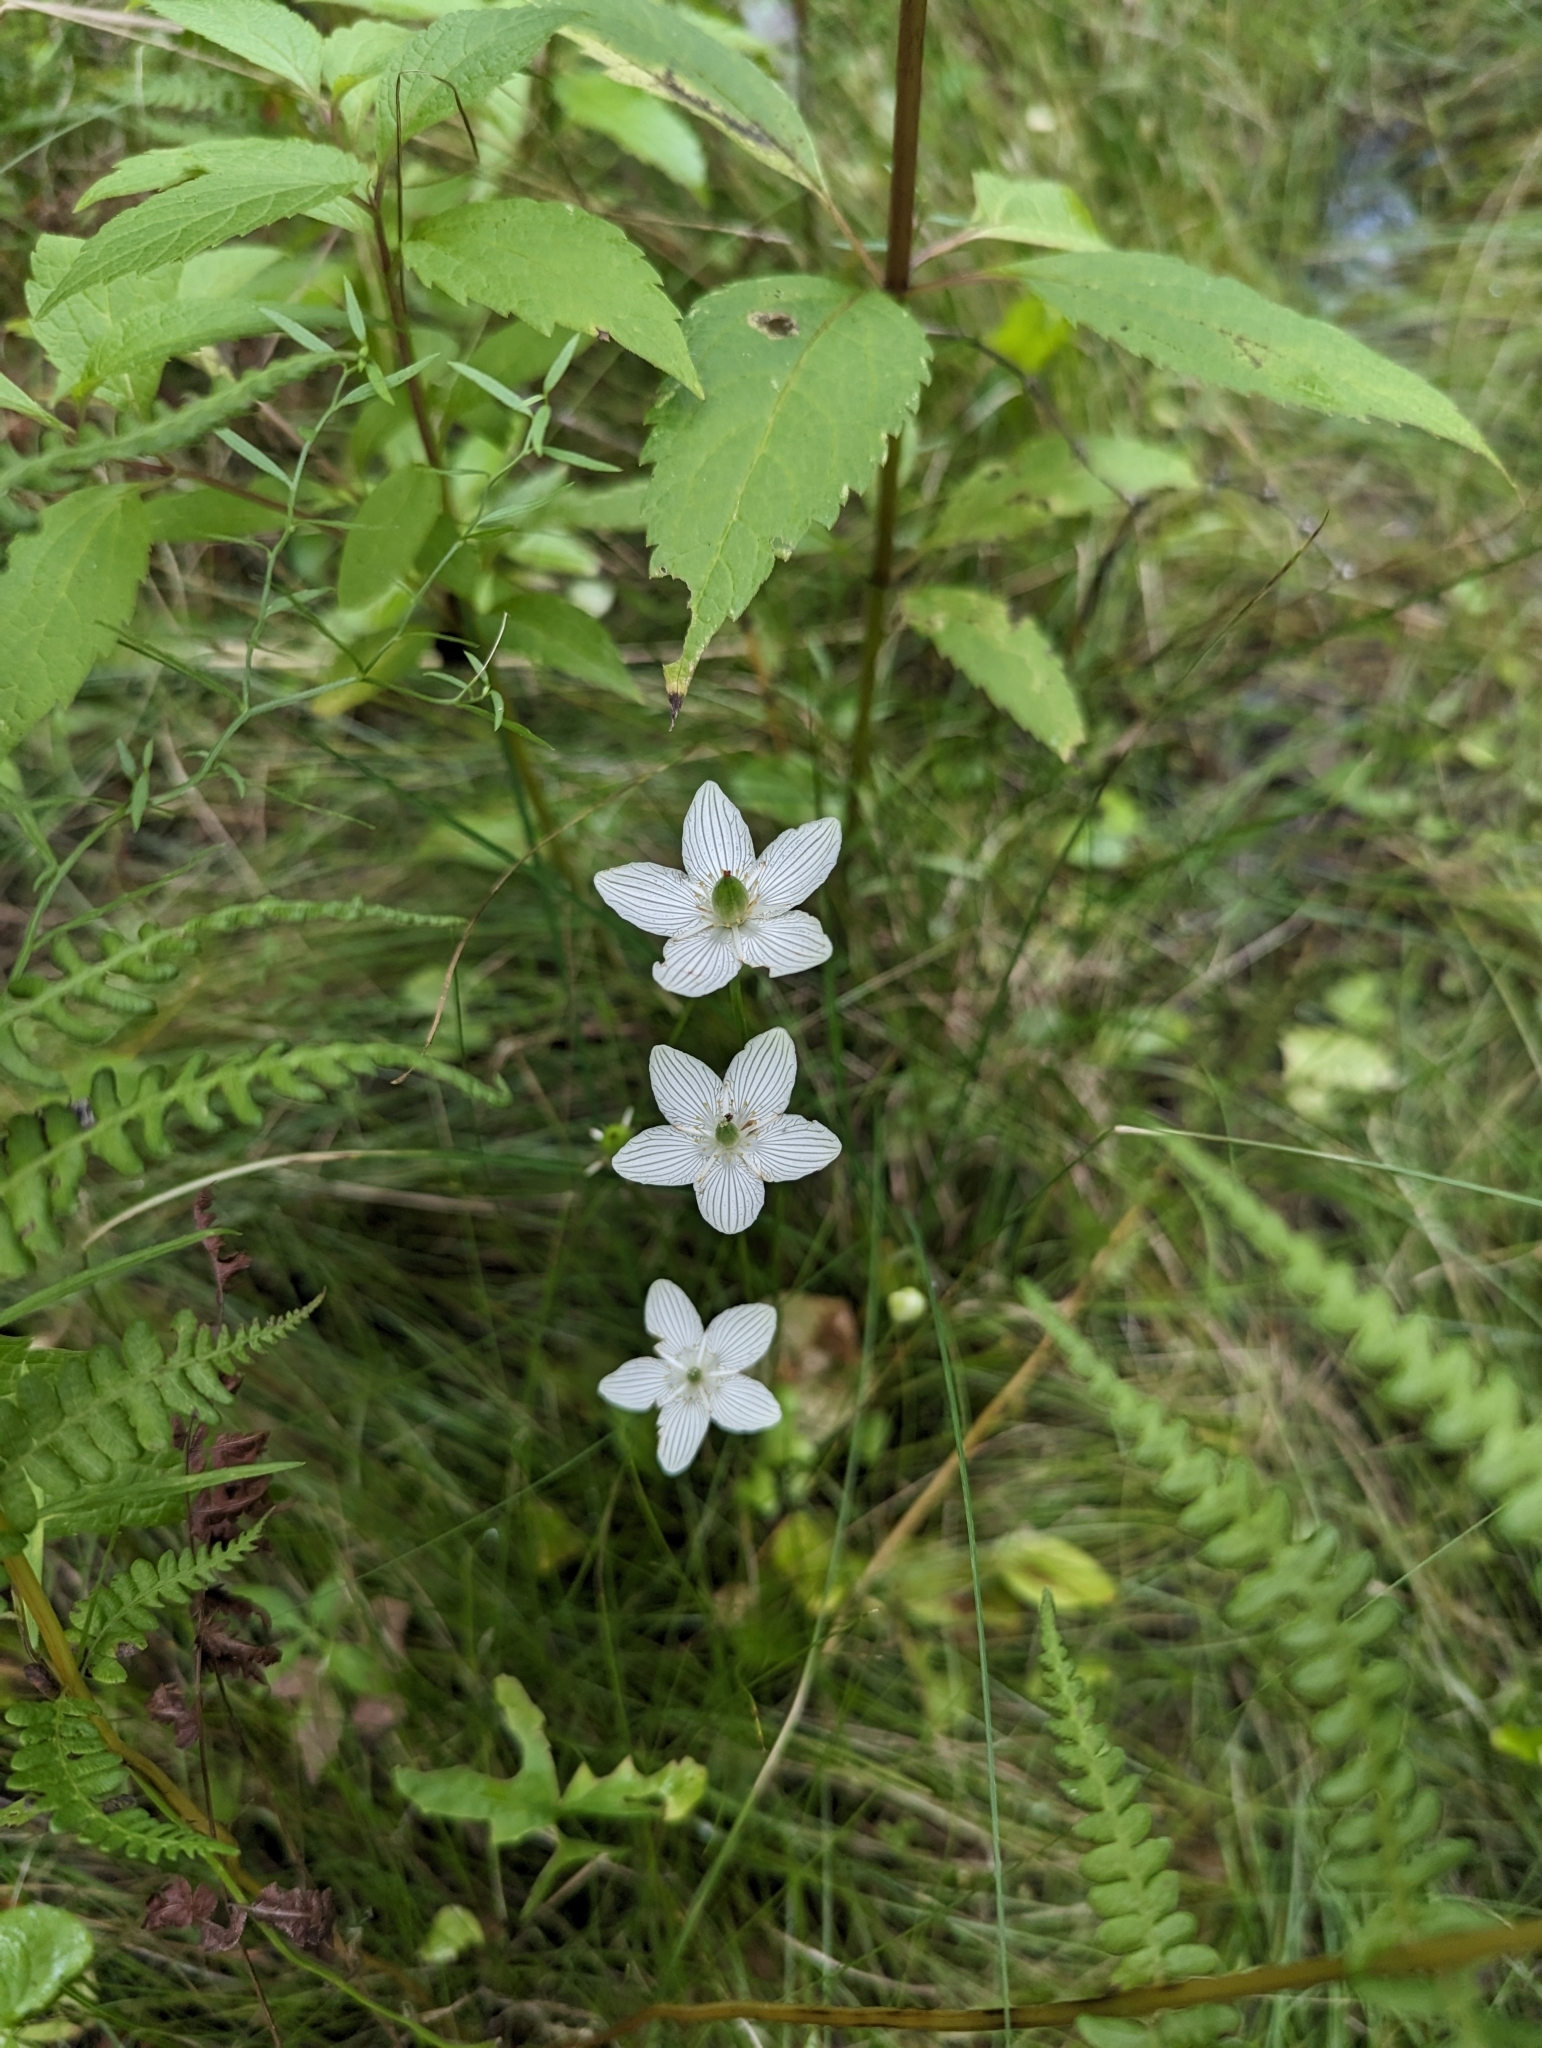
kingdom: Plantae
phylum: Tracheophyta
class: Magnoliopsida
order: Celastrales
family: Parnassiaceae
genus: Parnassia
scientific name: Parnassia glauca
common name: American grass-of-parnassus
